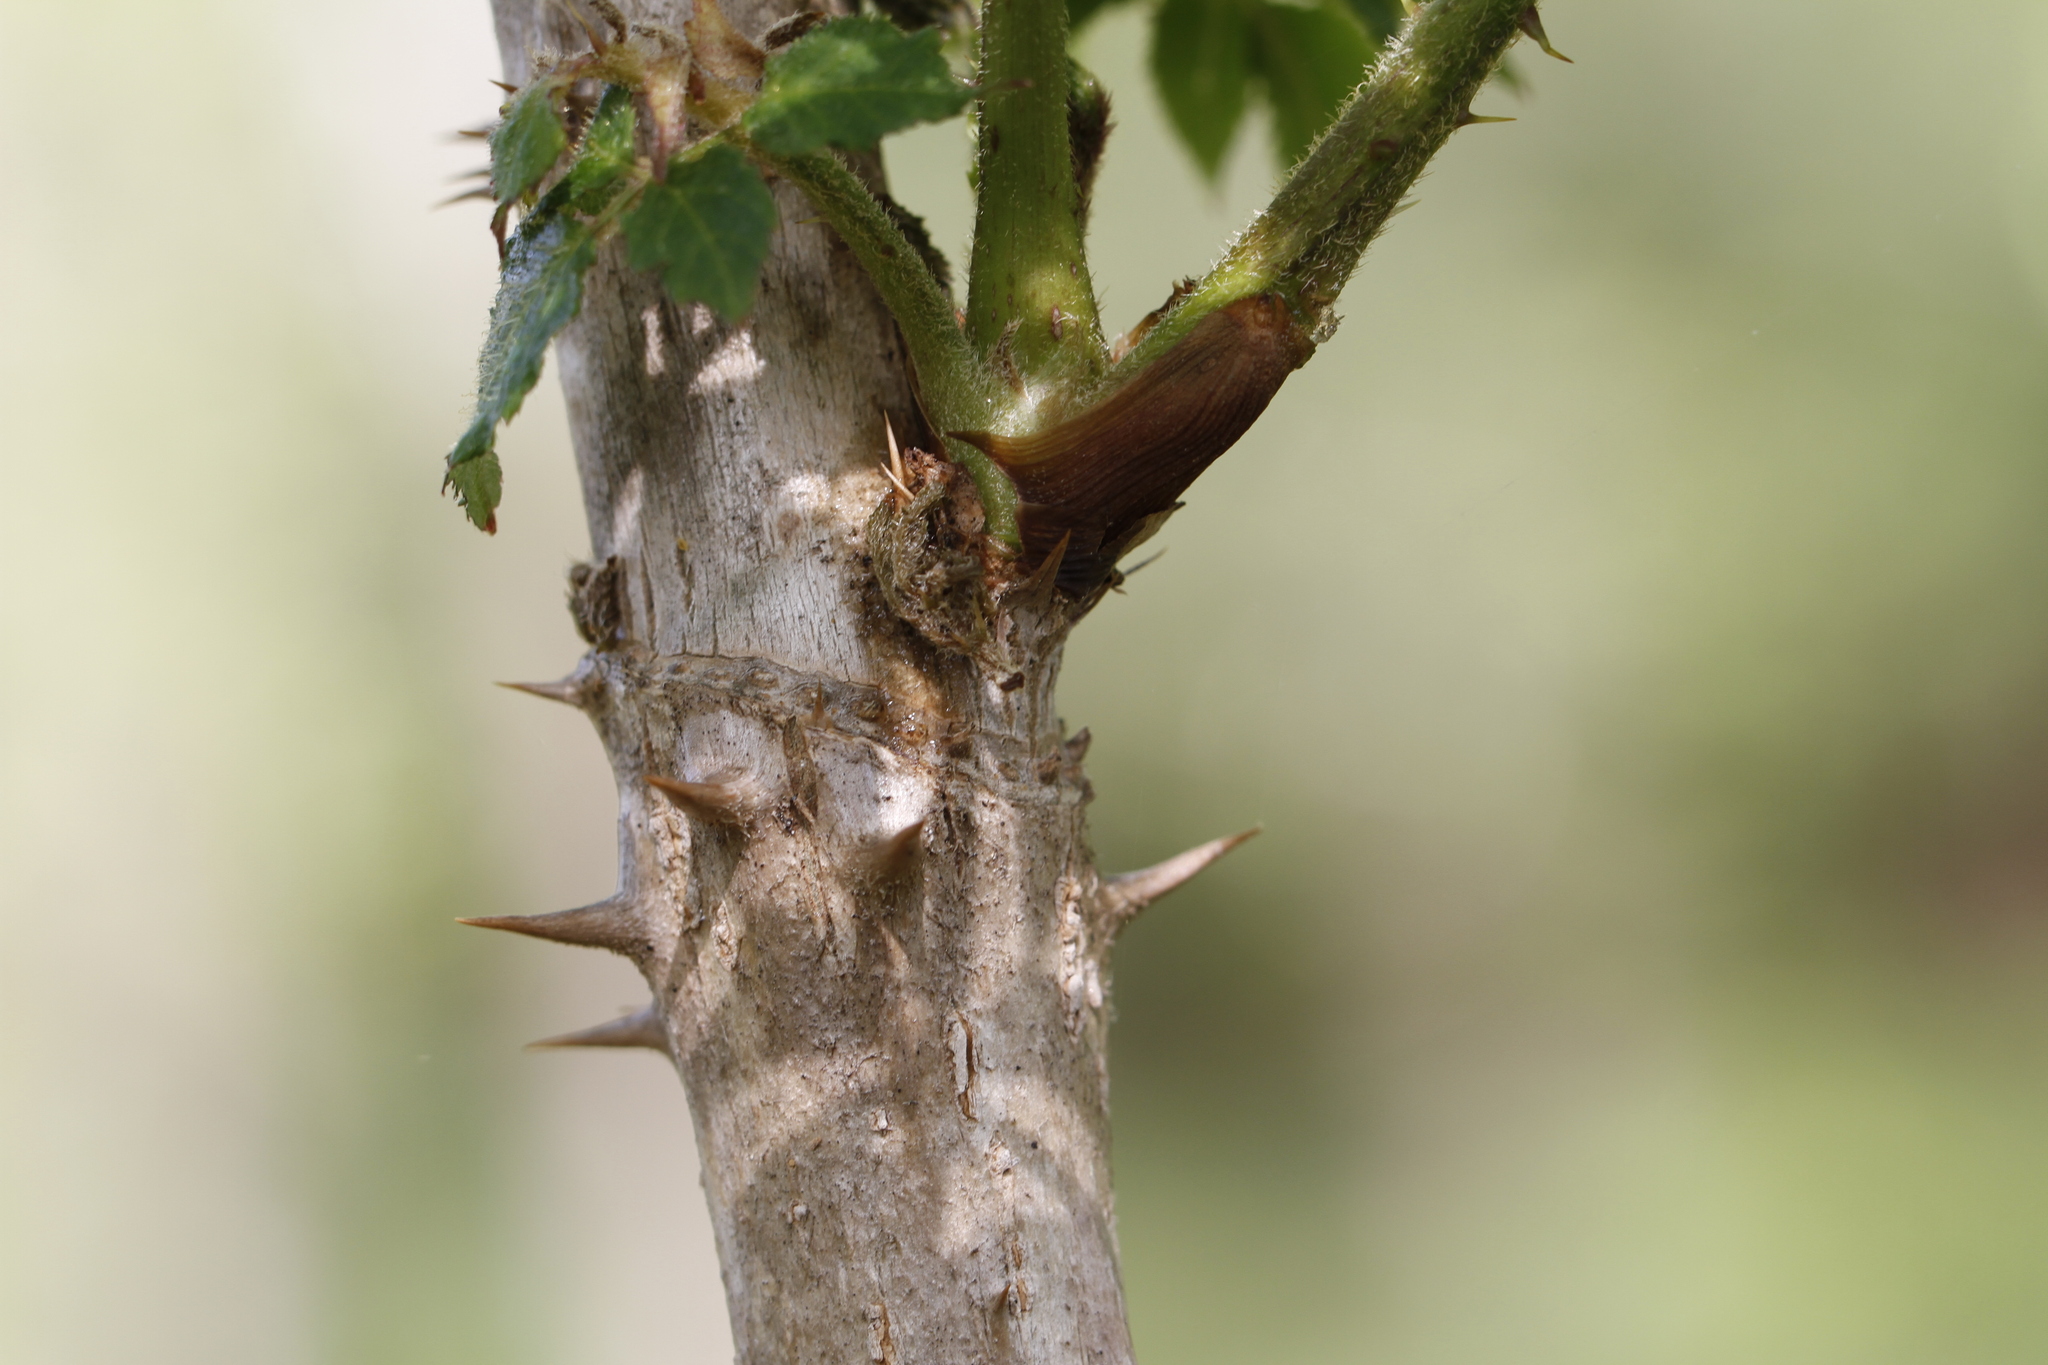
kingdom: Plantae
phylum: Tracheophyta
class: Magnoliopsida
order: Apiales
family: Araliaceae
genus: Aralia
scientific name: Aralia spinosa
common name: Hercules'-club
